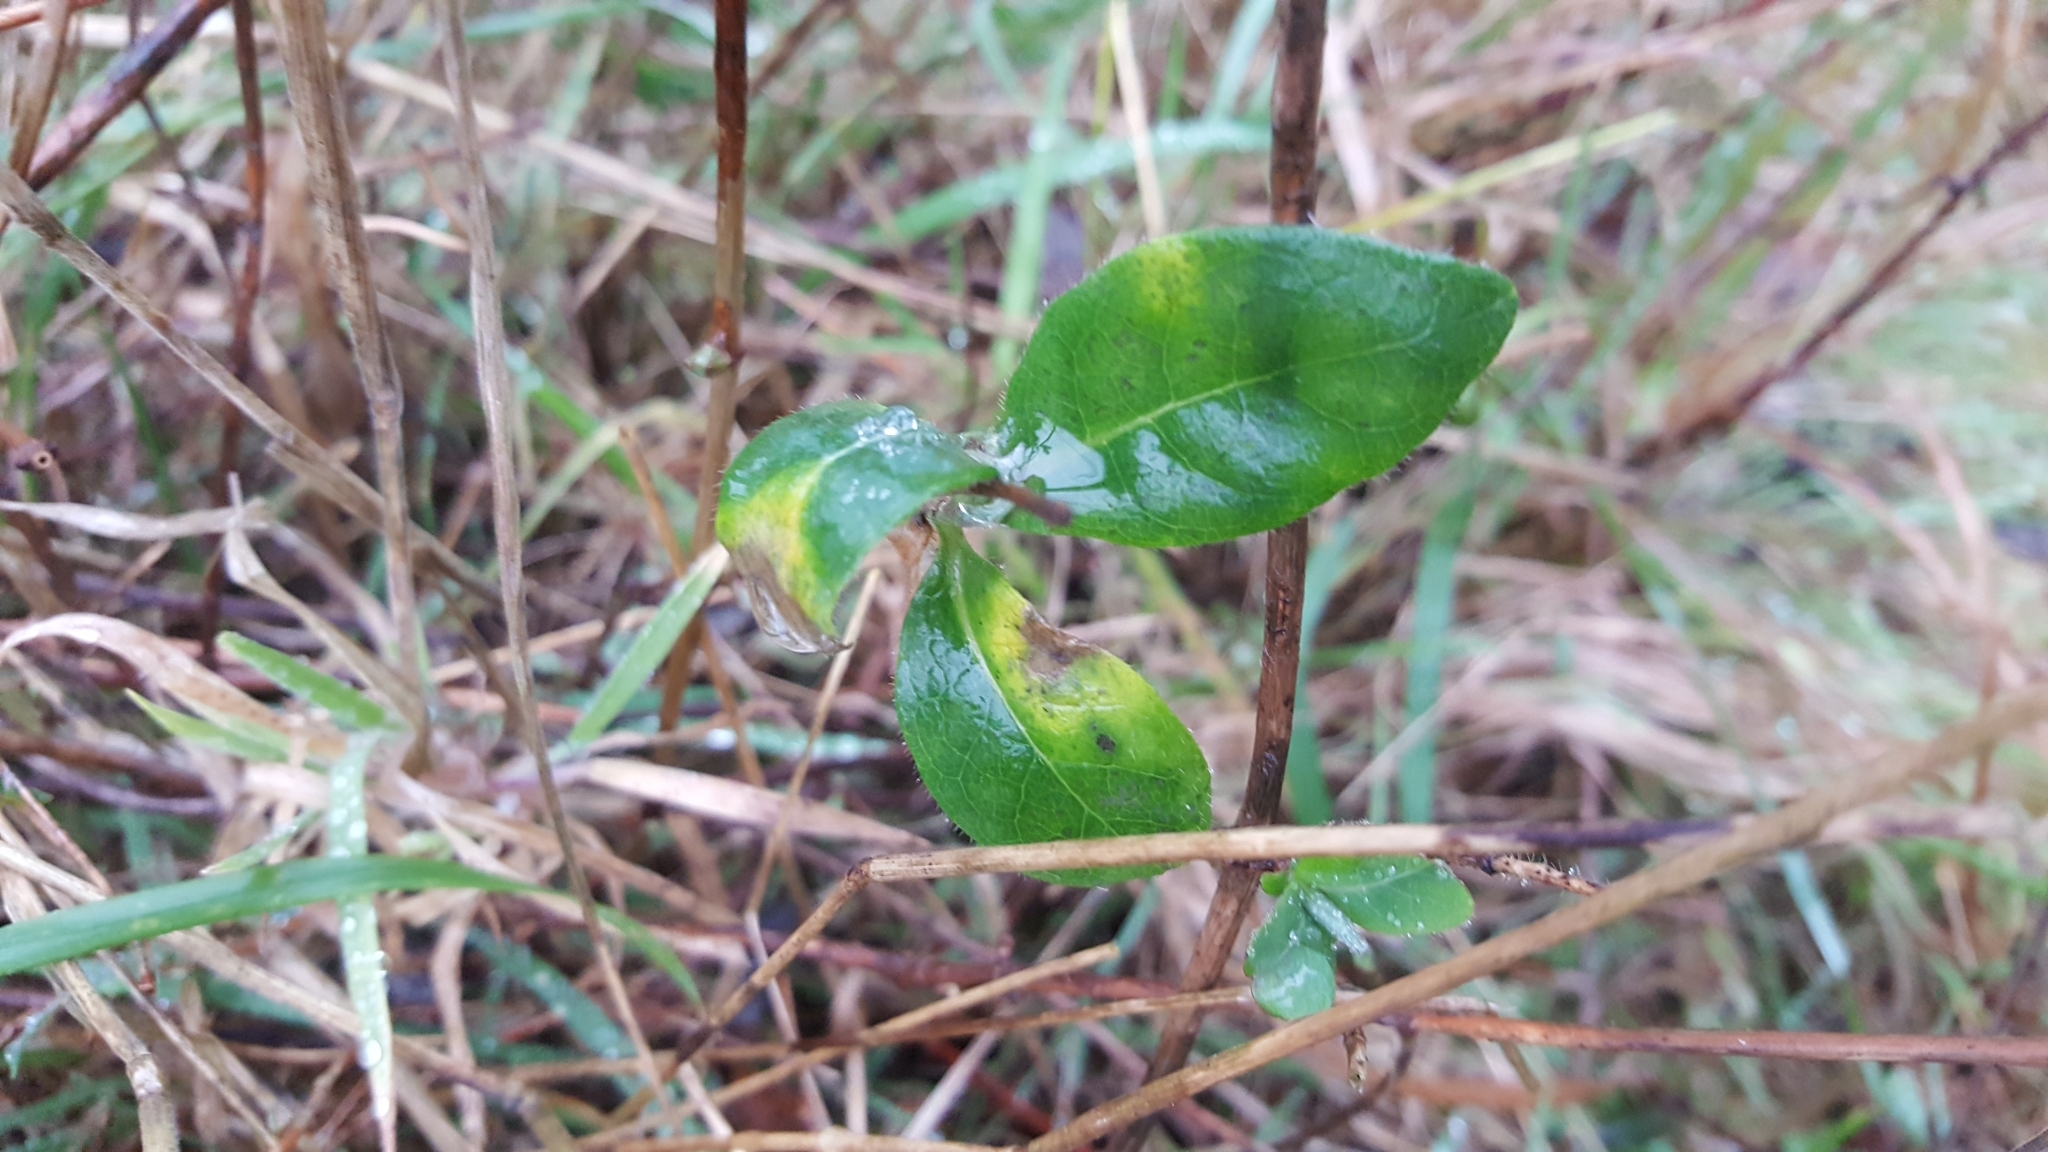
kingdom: Plantae
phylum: Tracheophyta
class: Magnoliopsida
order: Dipsacales
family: Caprifoliaceae
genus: Lonicera
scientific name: Lonicera periclymenum
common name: European honeysuckle
